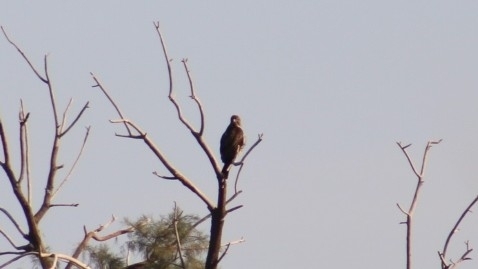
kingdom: Animalia
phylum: Chordata
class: Aves
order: Accipitriformes
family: Accipitridae
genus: Buteo
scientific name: Buteo jamaicensis
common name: Red-tailed hawk
